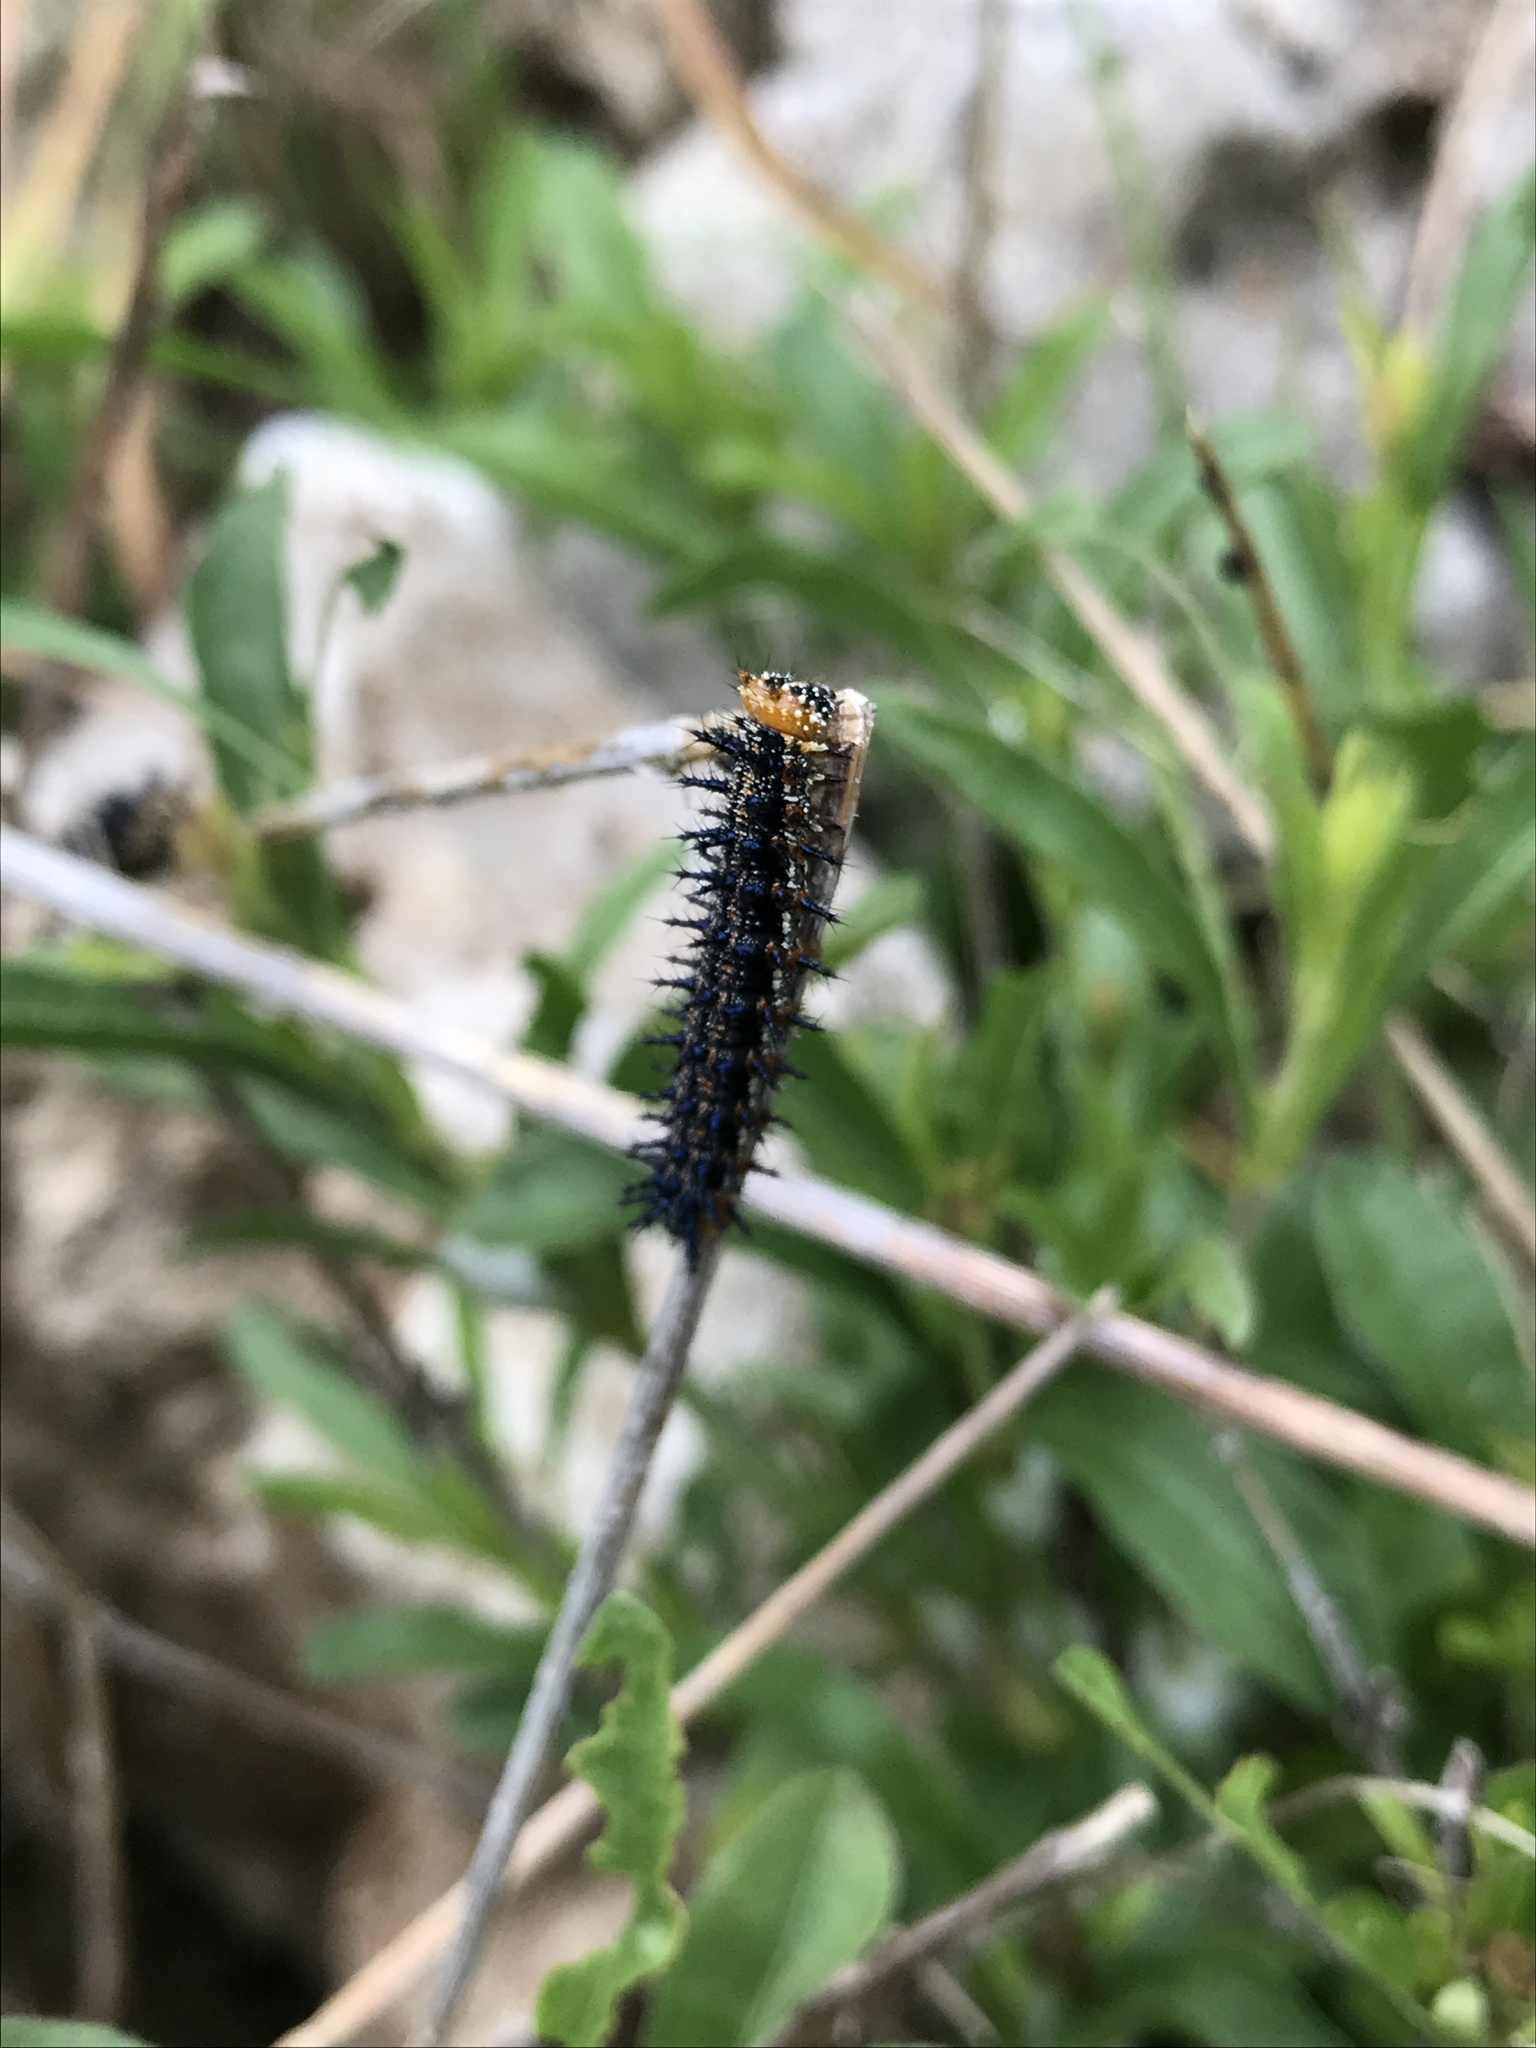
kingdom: Animalia
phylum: Arthropoda
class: Insecta
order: Lepidoptera
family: Nymphalidae
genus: Junonia
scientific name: Junonia coenia
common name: Common buckeye
